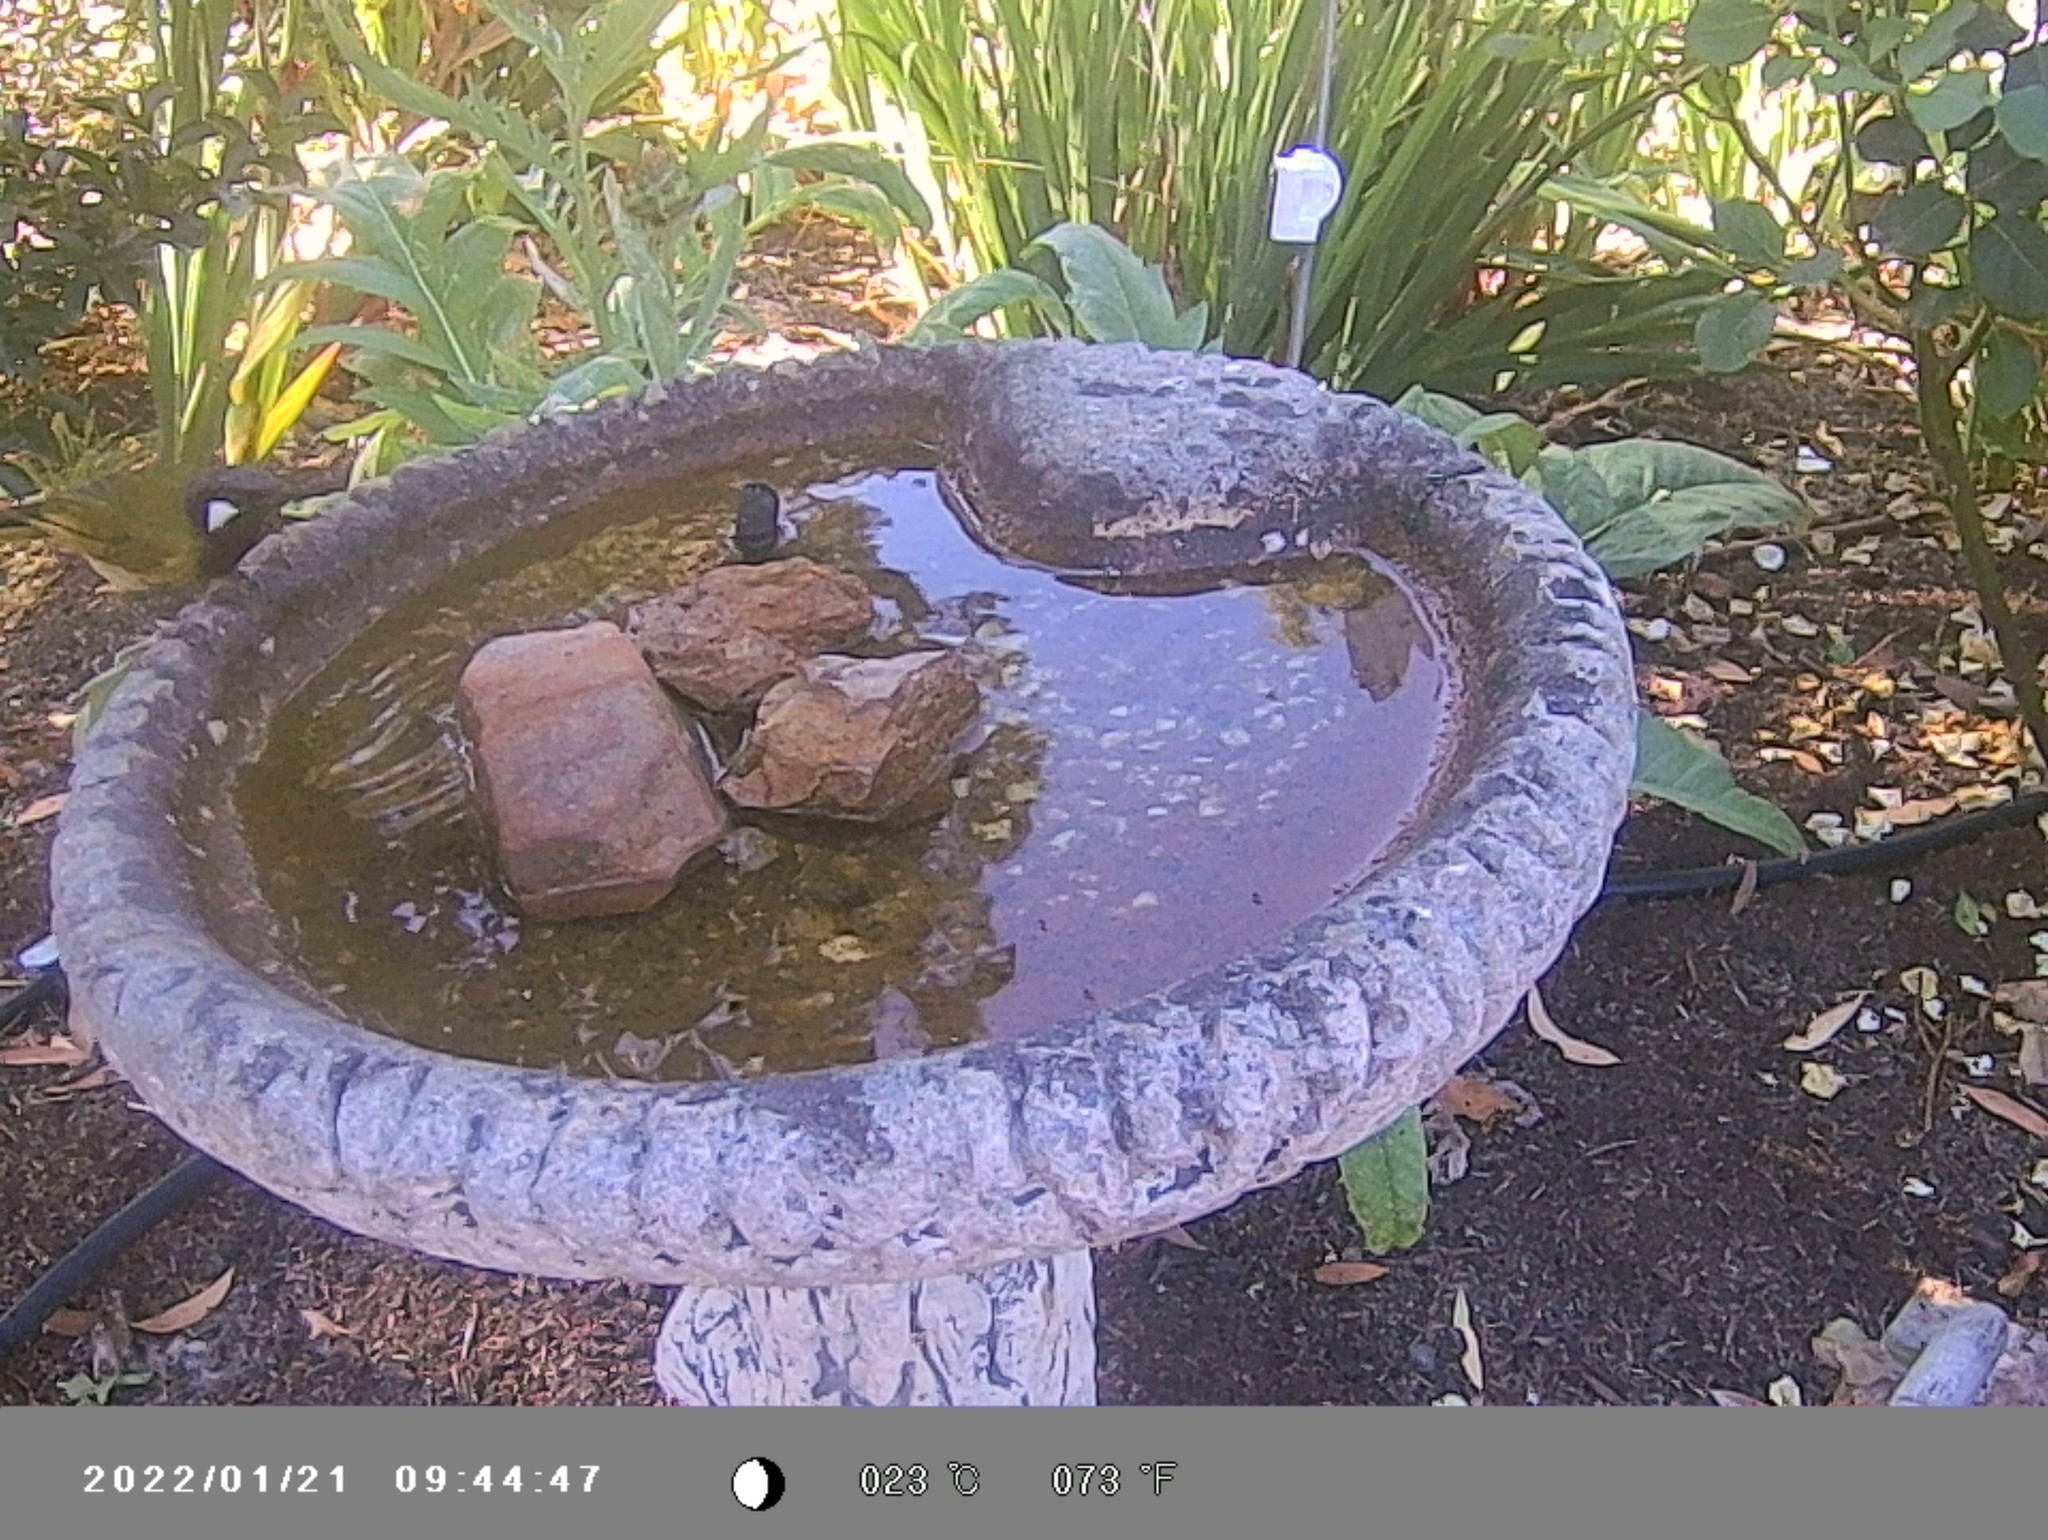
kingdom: Animalia
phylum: Chordata
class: Aves
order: Passeriformes
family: Meliphagidae
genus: Nesoptilotis
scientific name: Nesoptilotis leucotis
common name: White-eared honeyeater
